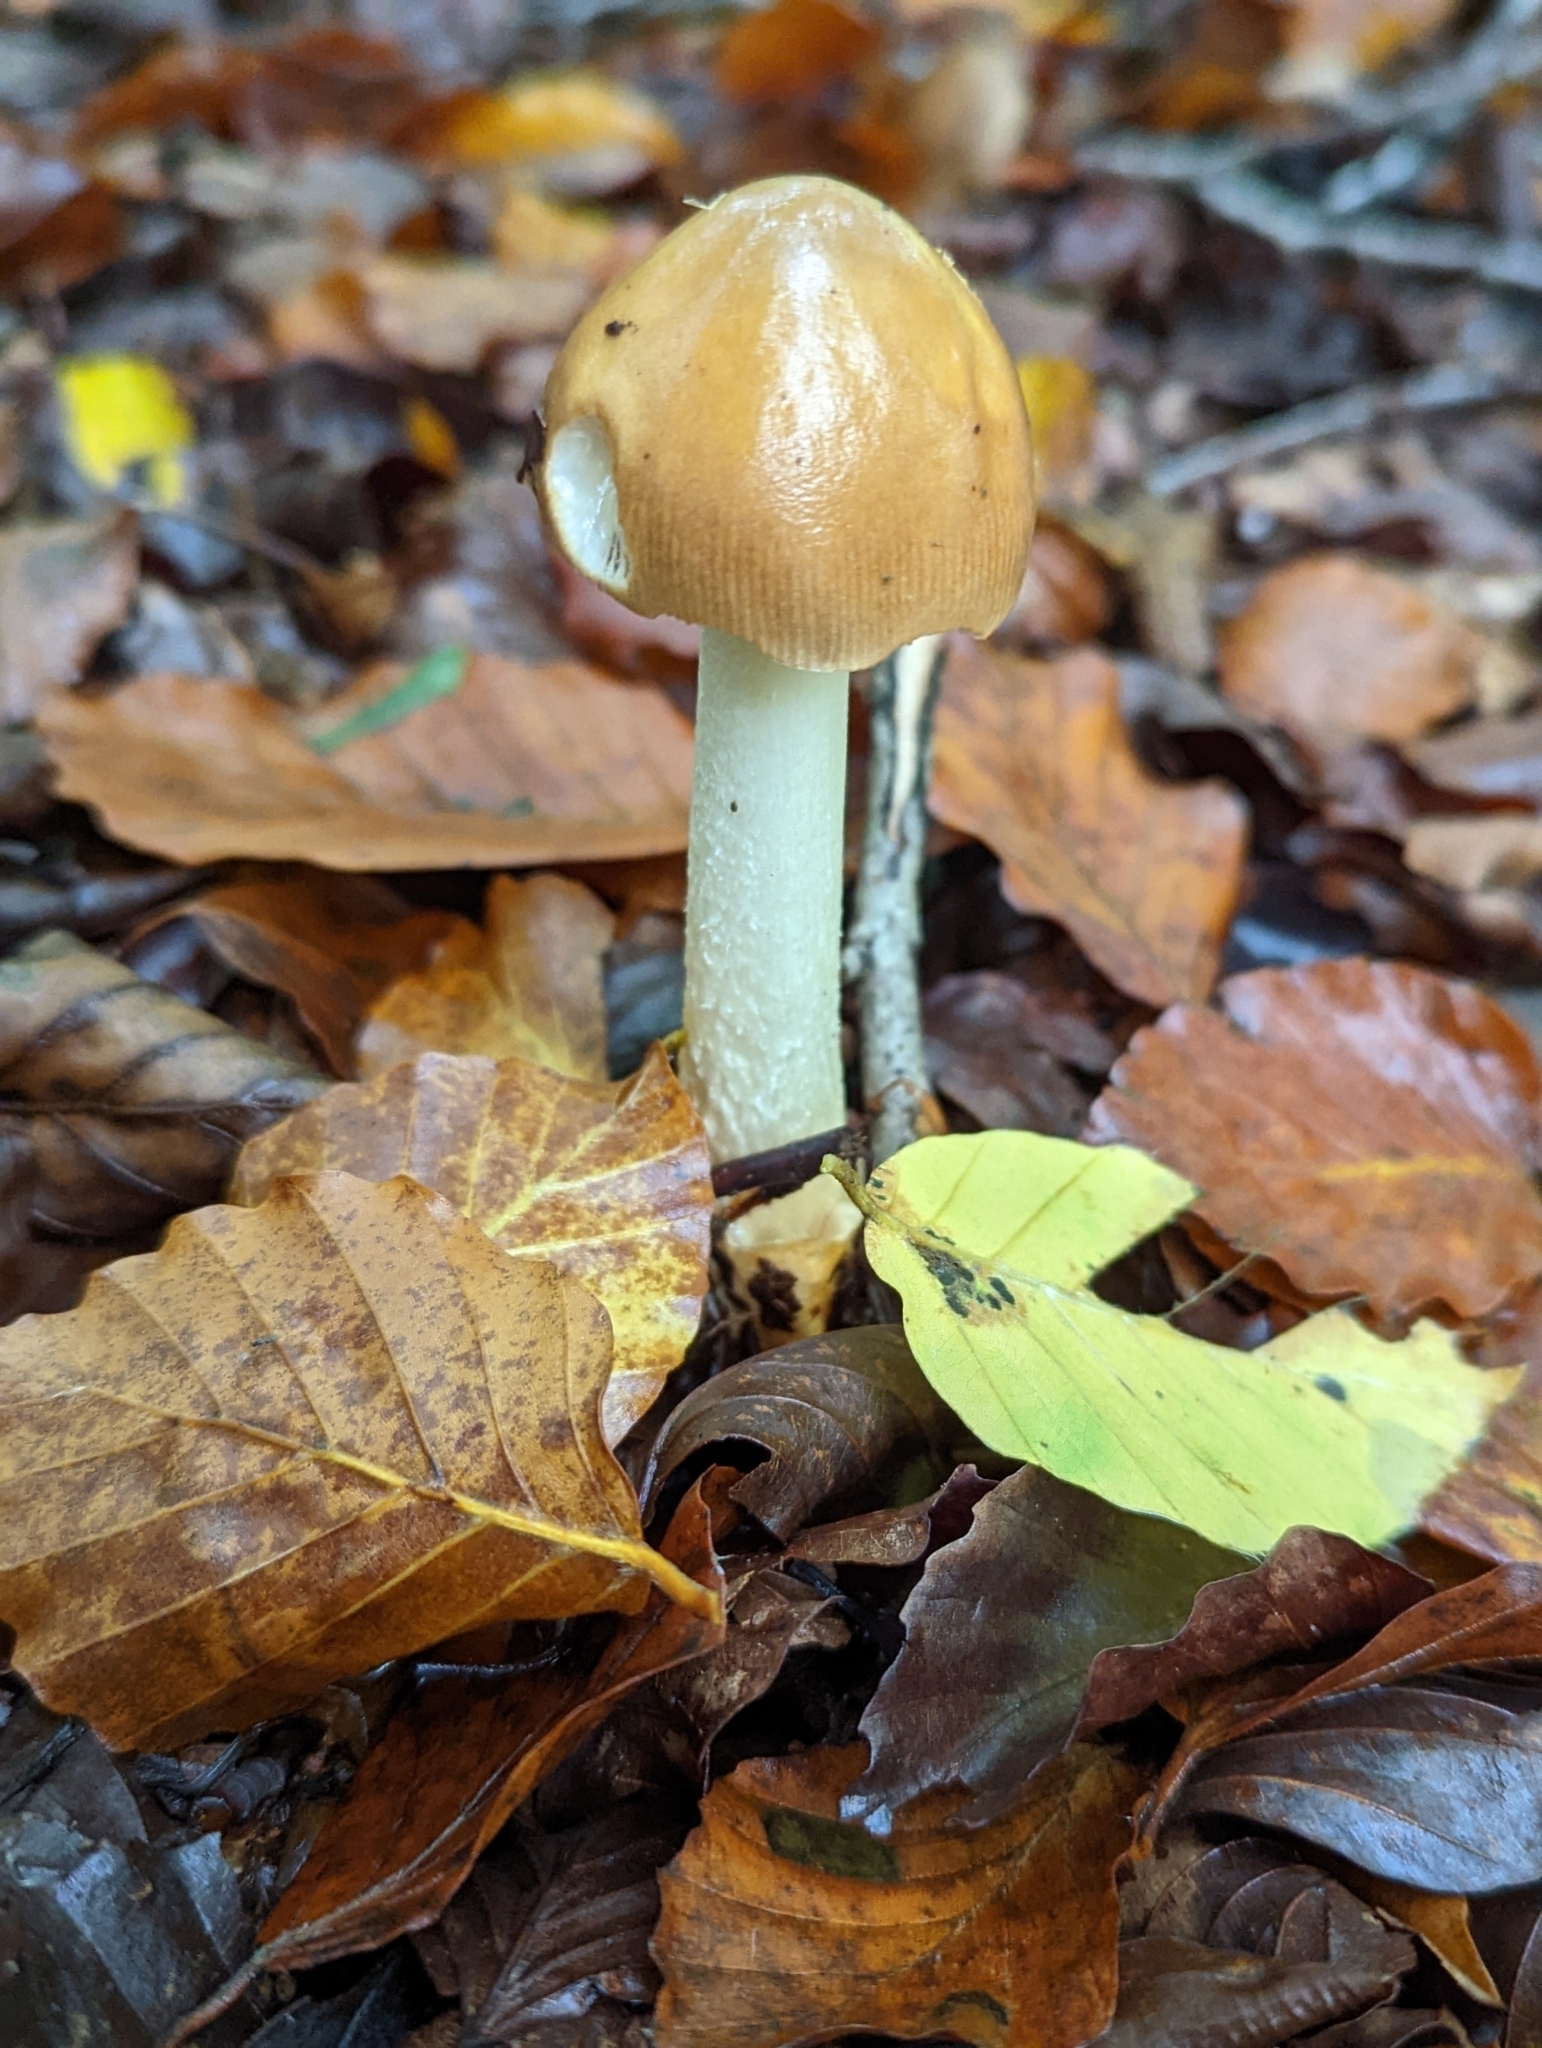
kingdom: Fungi
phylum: Basidiomycota
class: Agaricomycetes
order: Agaricales
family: Amanitaceae
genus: Amanita
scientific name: Amanita fulva
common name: Tawny grisette
